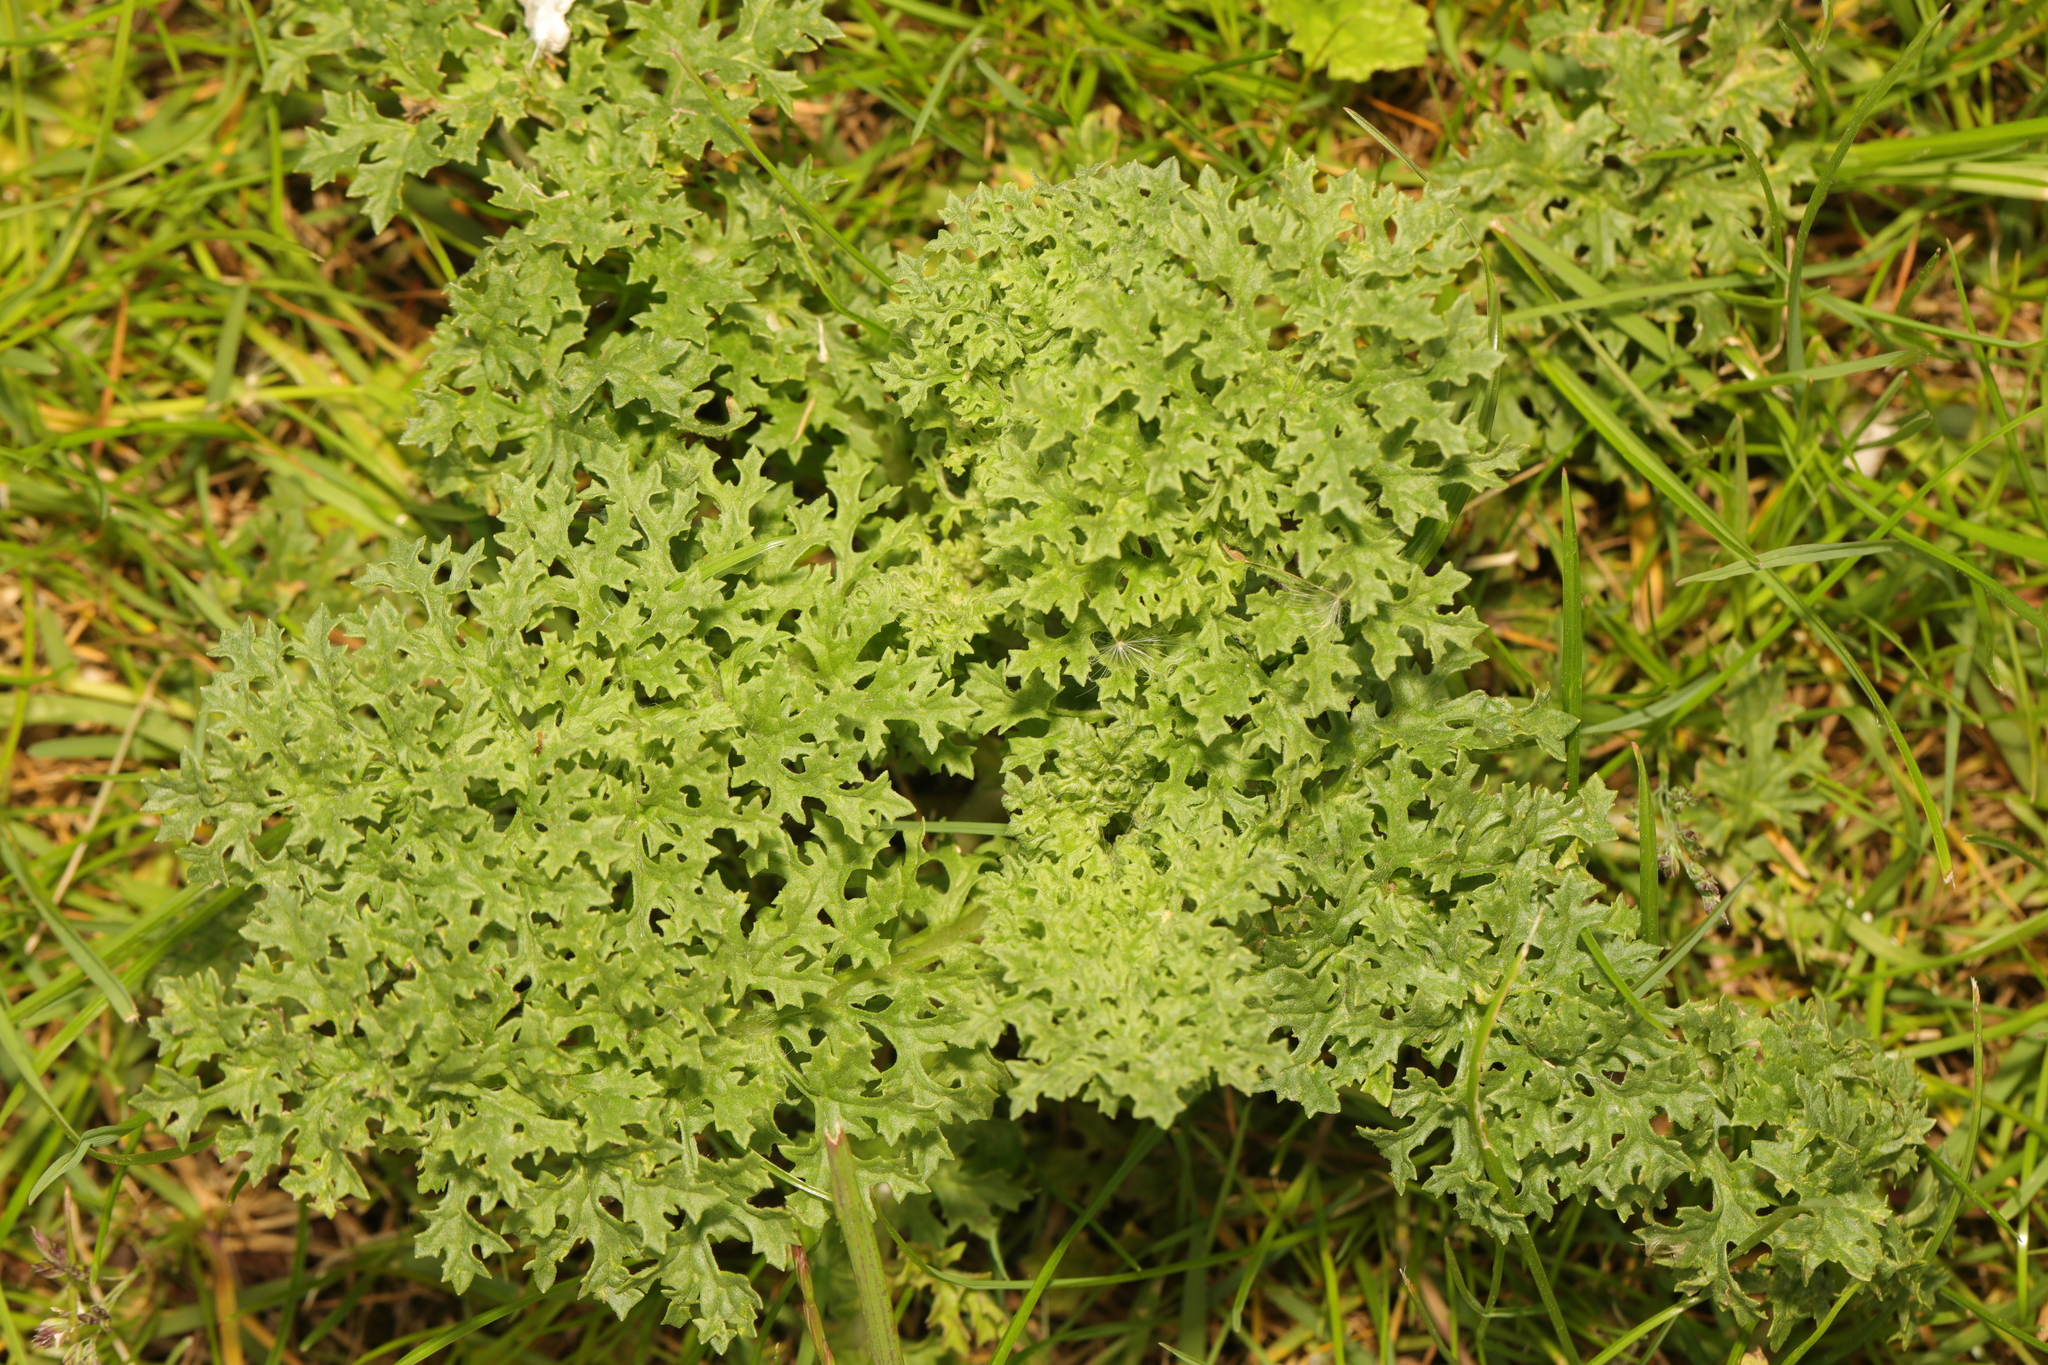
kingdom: Plantae
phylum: Tracheophyta
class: Magnoliopsida
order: Asterales
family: Asteraceae
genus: Jacobaea
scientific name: Jacobaea vulgaris
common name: Stinking willie
